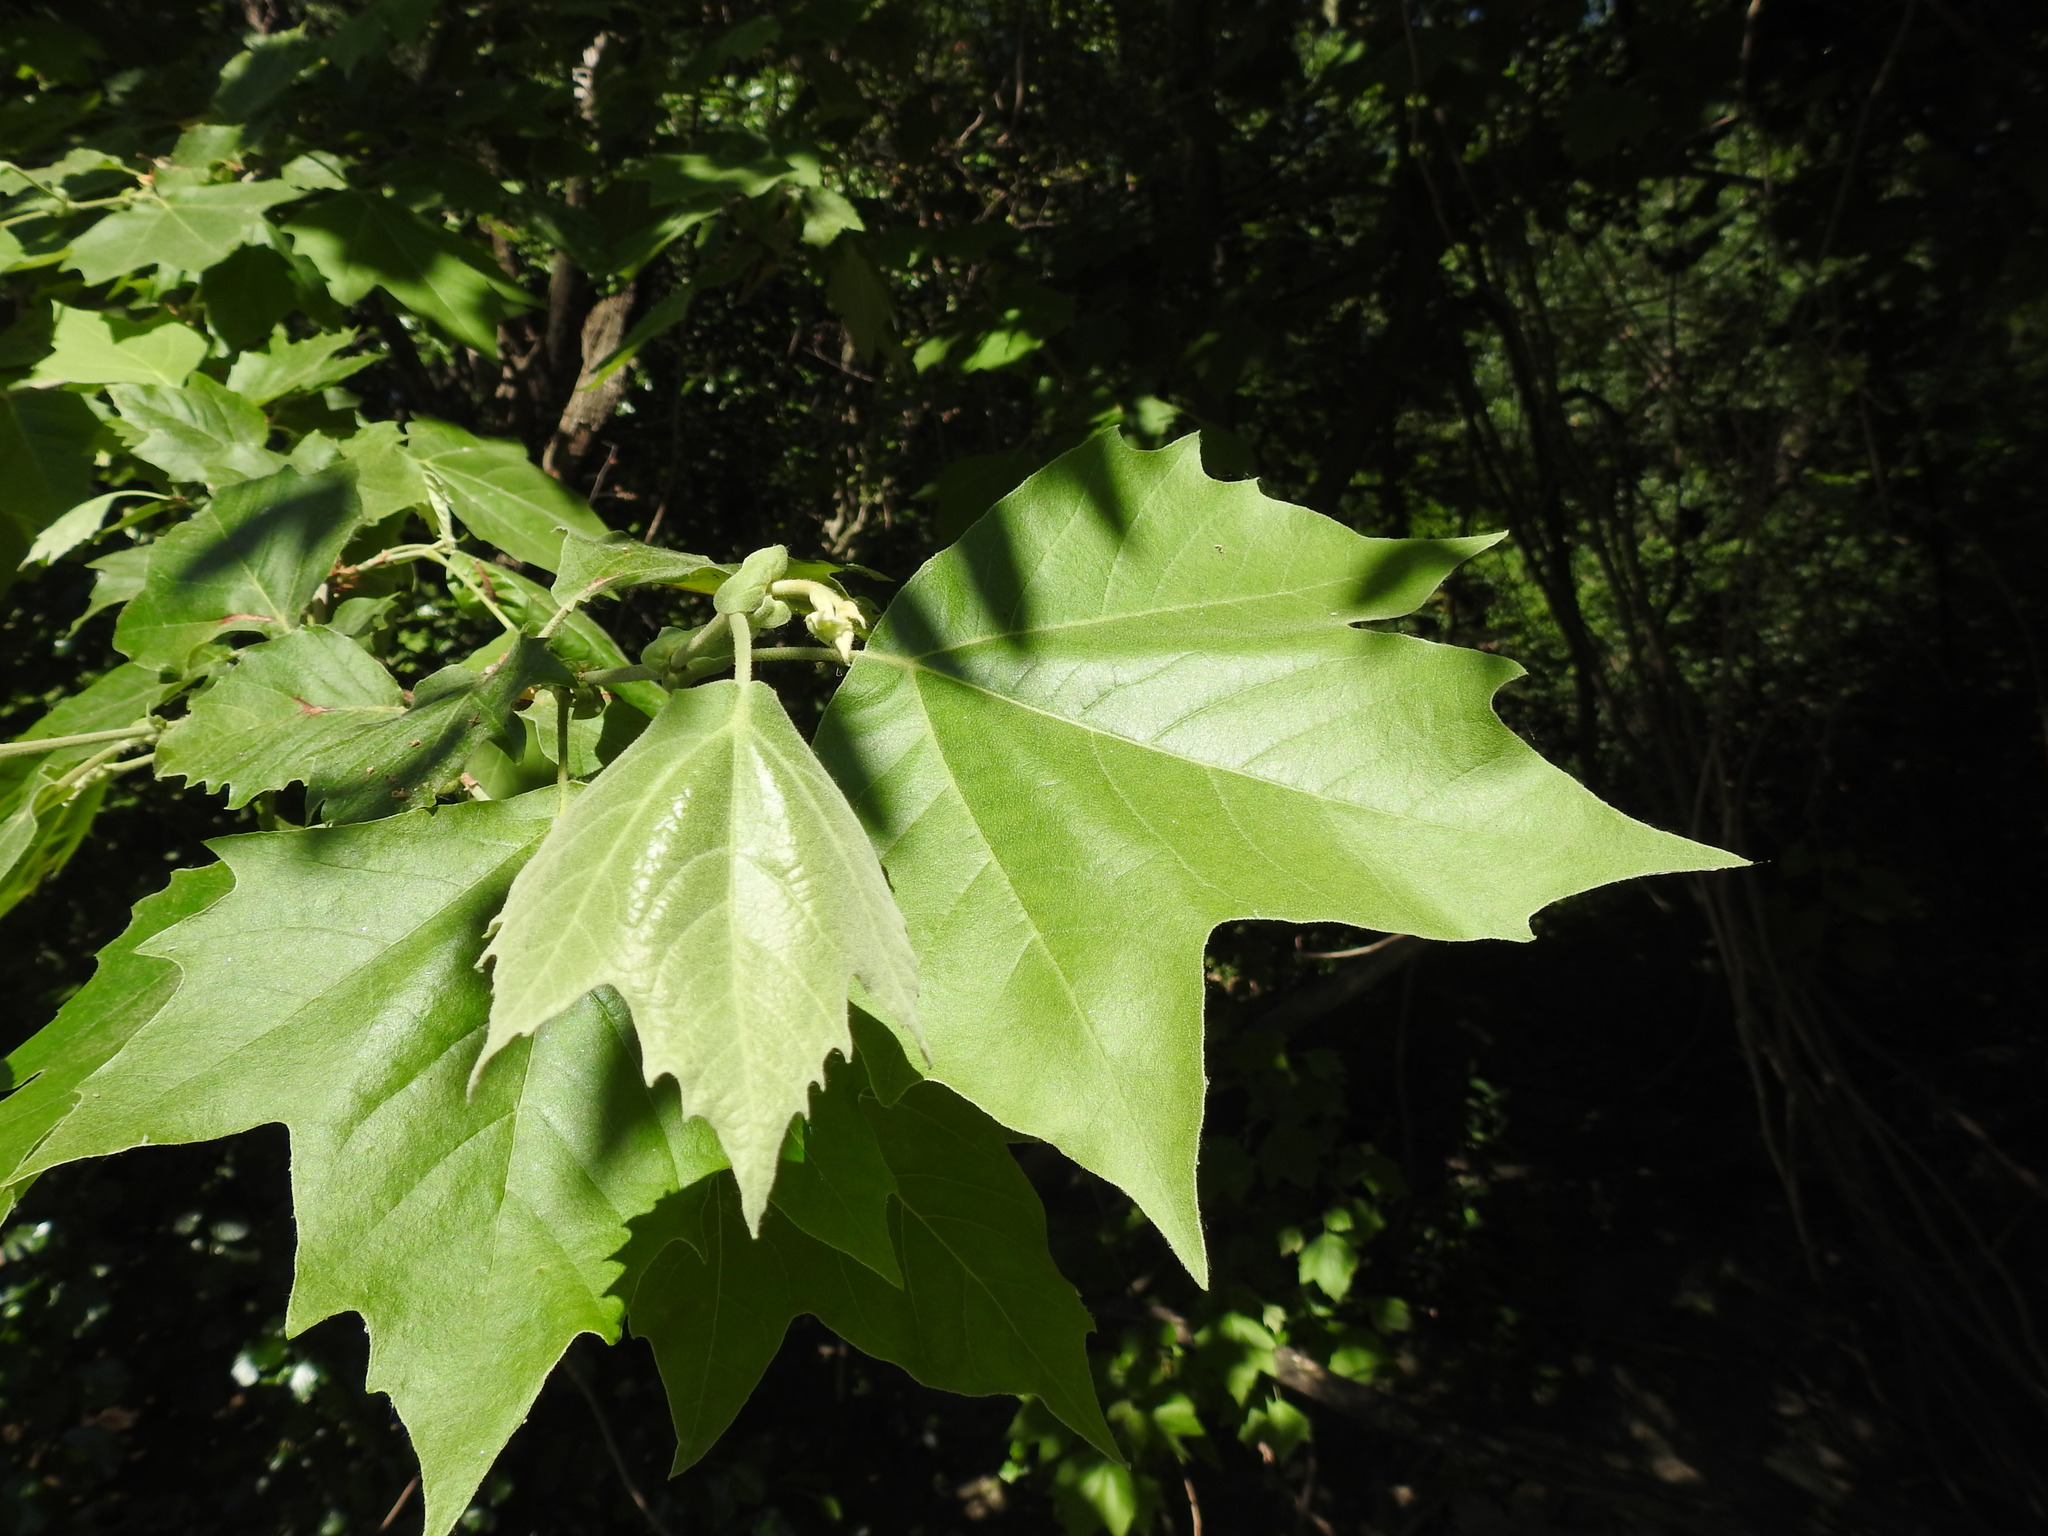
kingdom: Plantae
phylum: Tracheophyta
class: Magnoliopsida
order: Proteales
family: Platanaceae
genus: Platanus
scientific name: Platanus hispanica
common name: London plane
